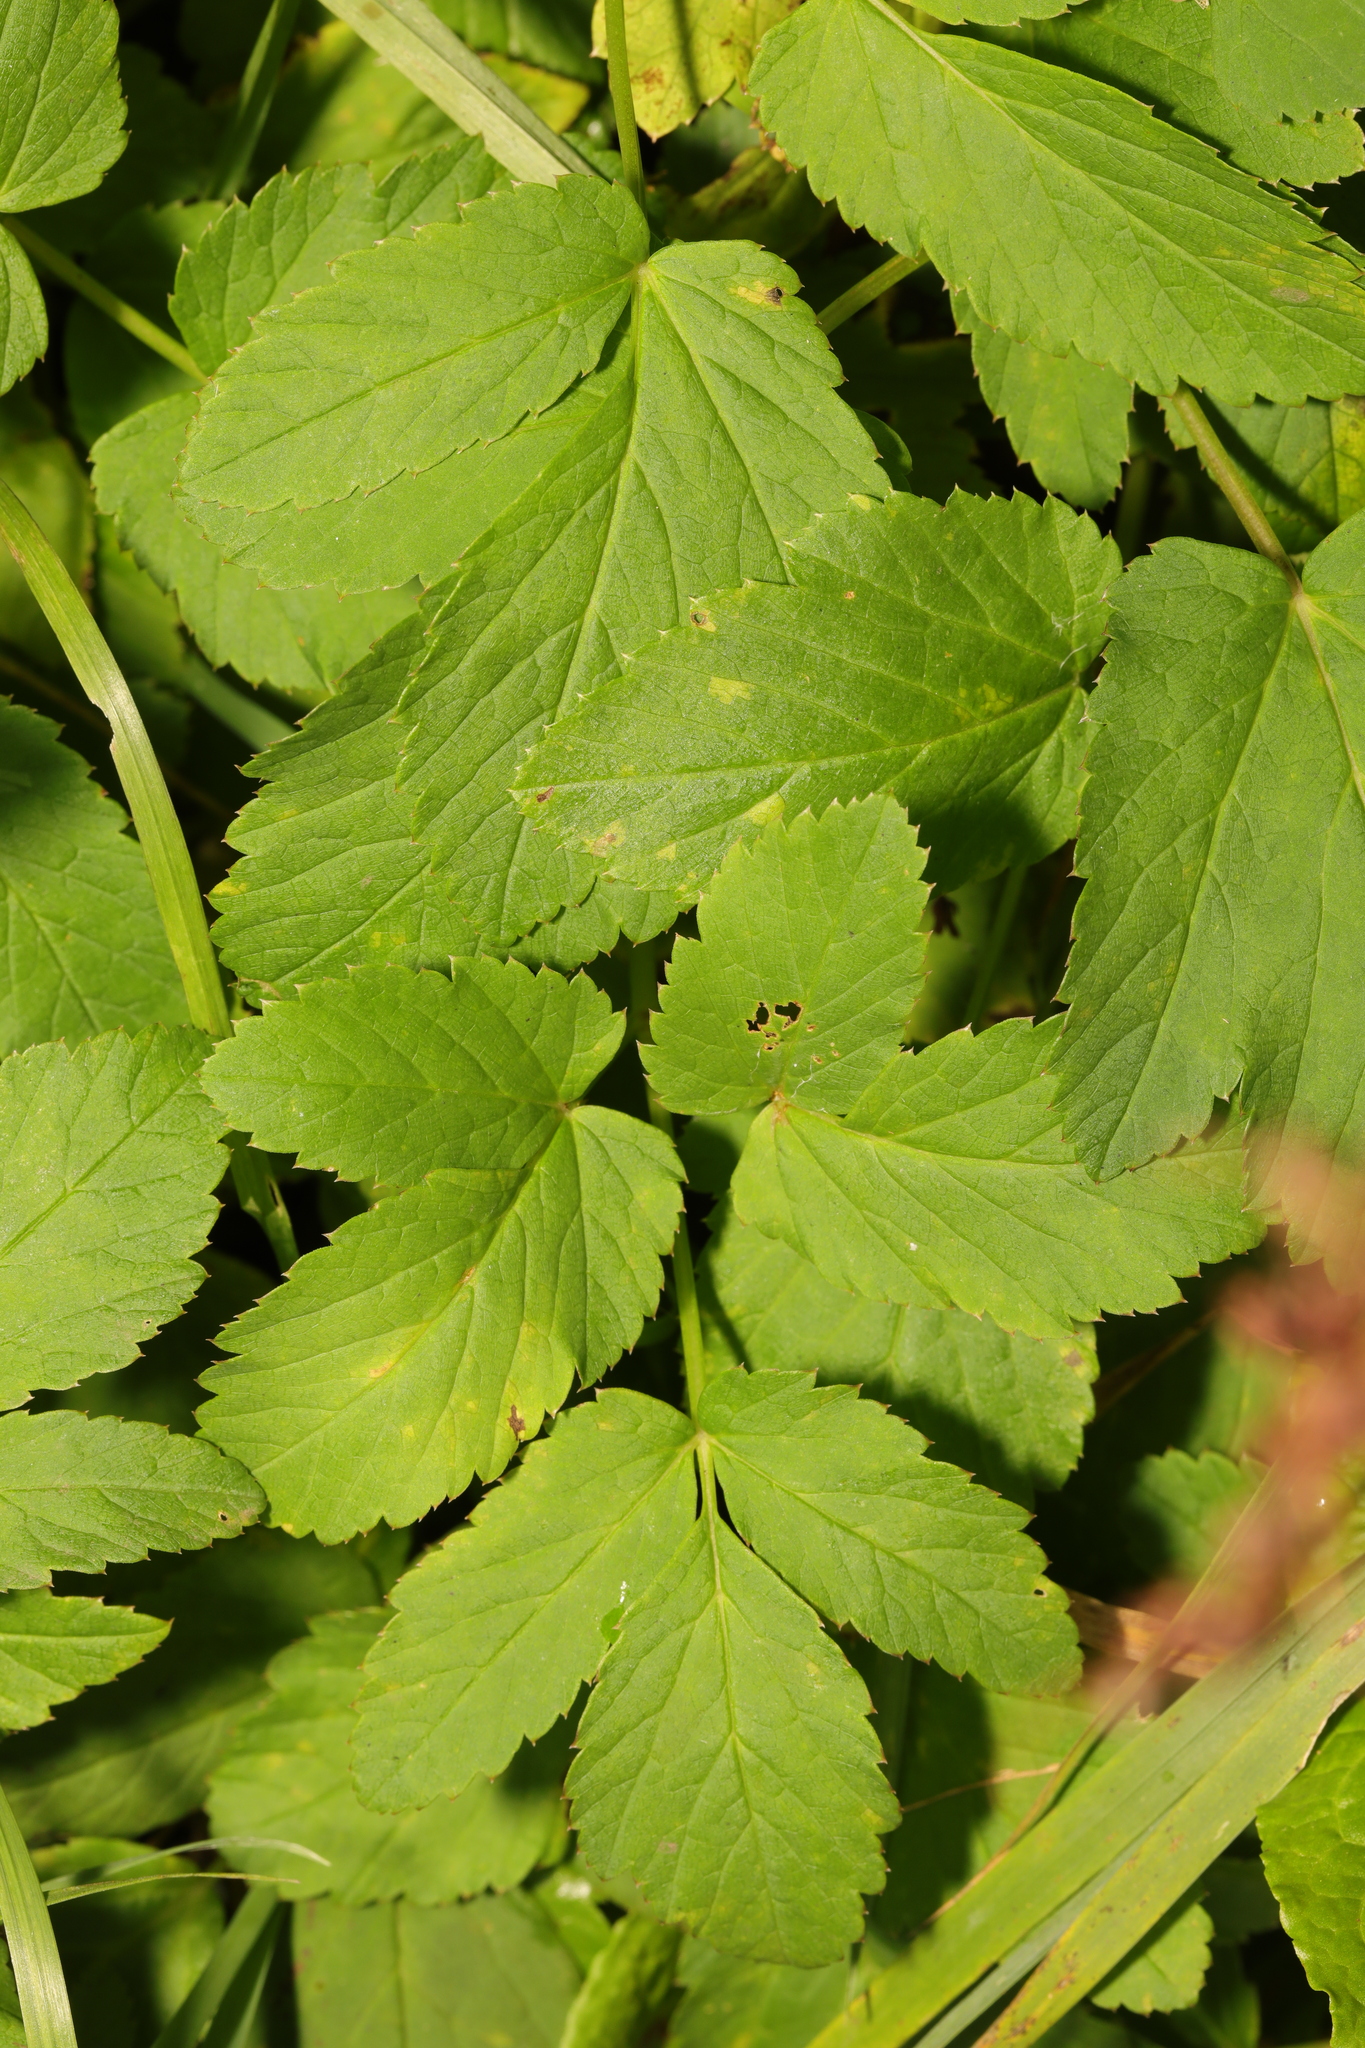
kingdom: Plantae
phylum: Tracheophyta
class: Magnoliopsida
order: Apiales
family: Apiaceae
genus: Aegopodium
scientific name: Aegopodium podagraria
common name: Ground-elder
